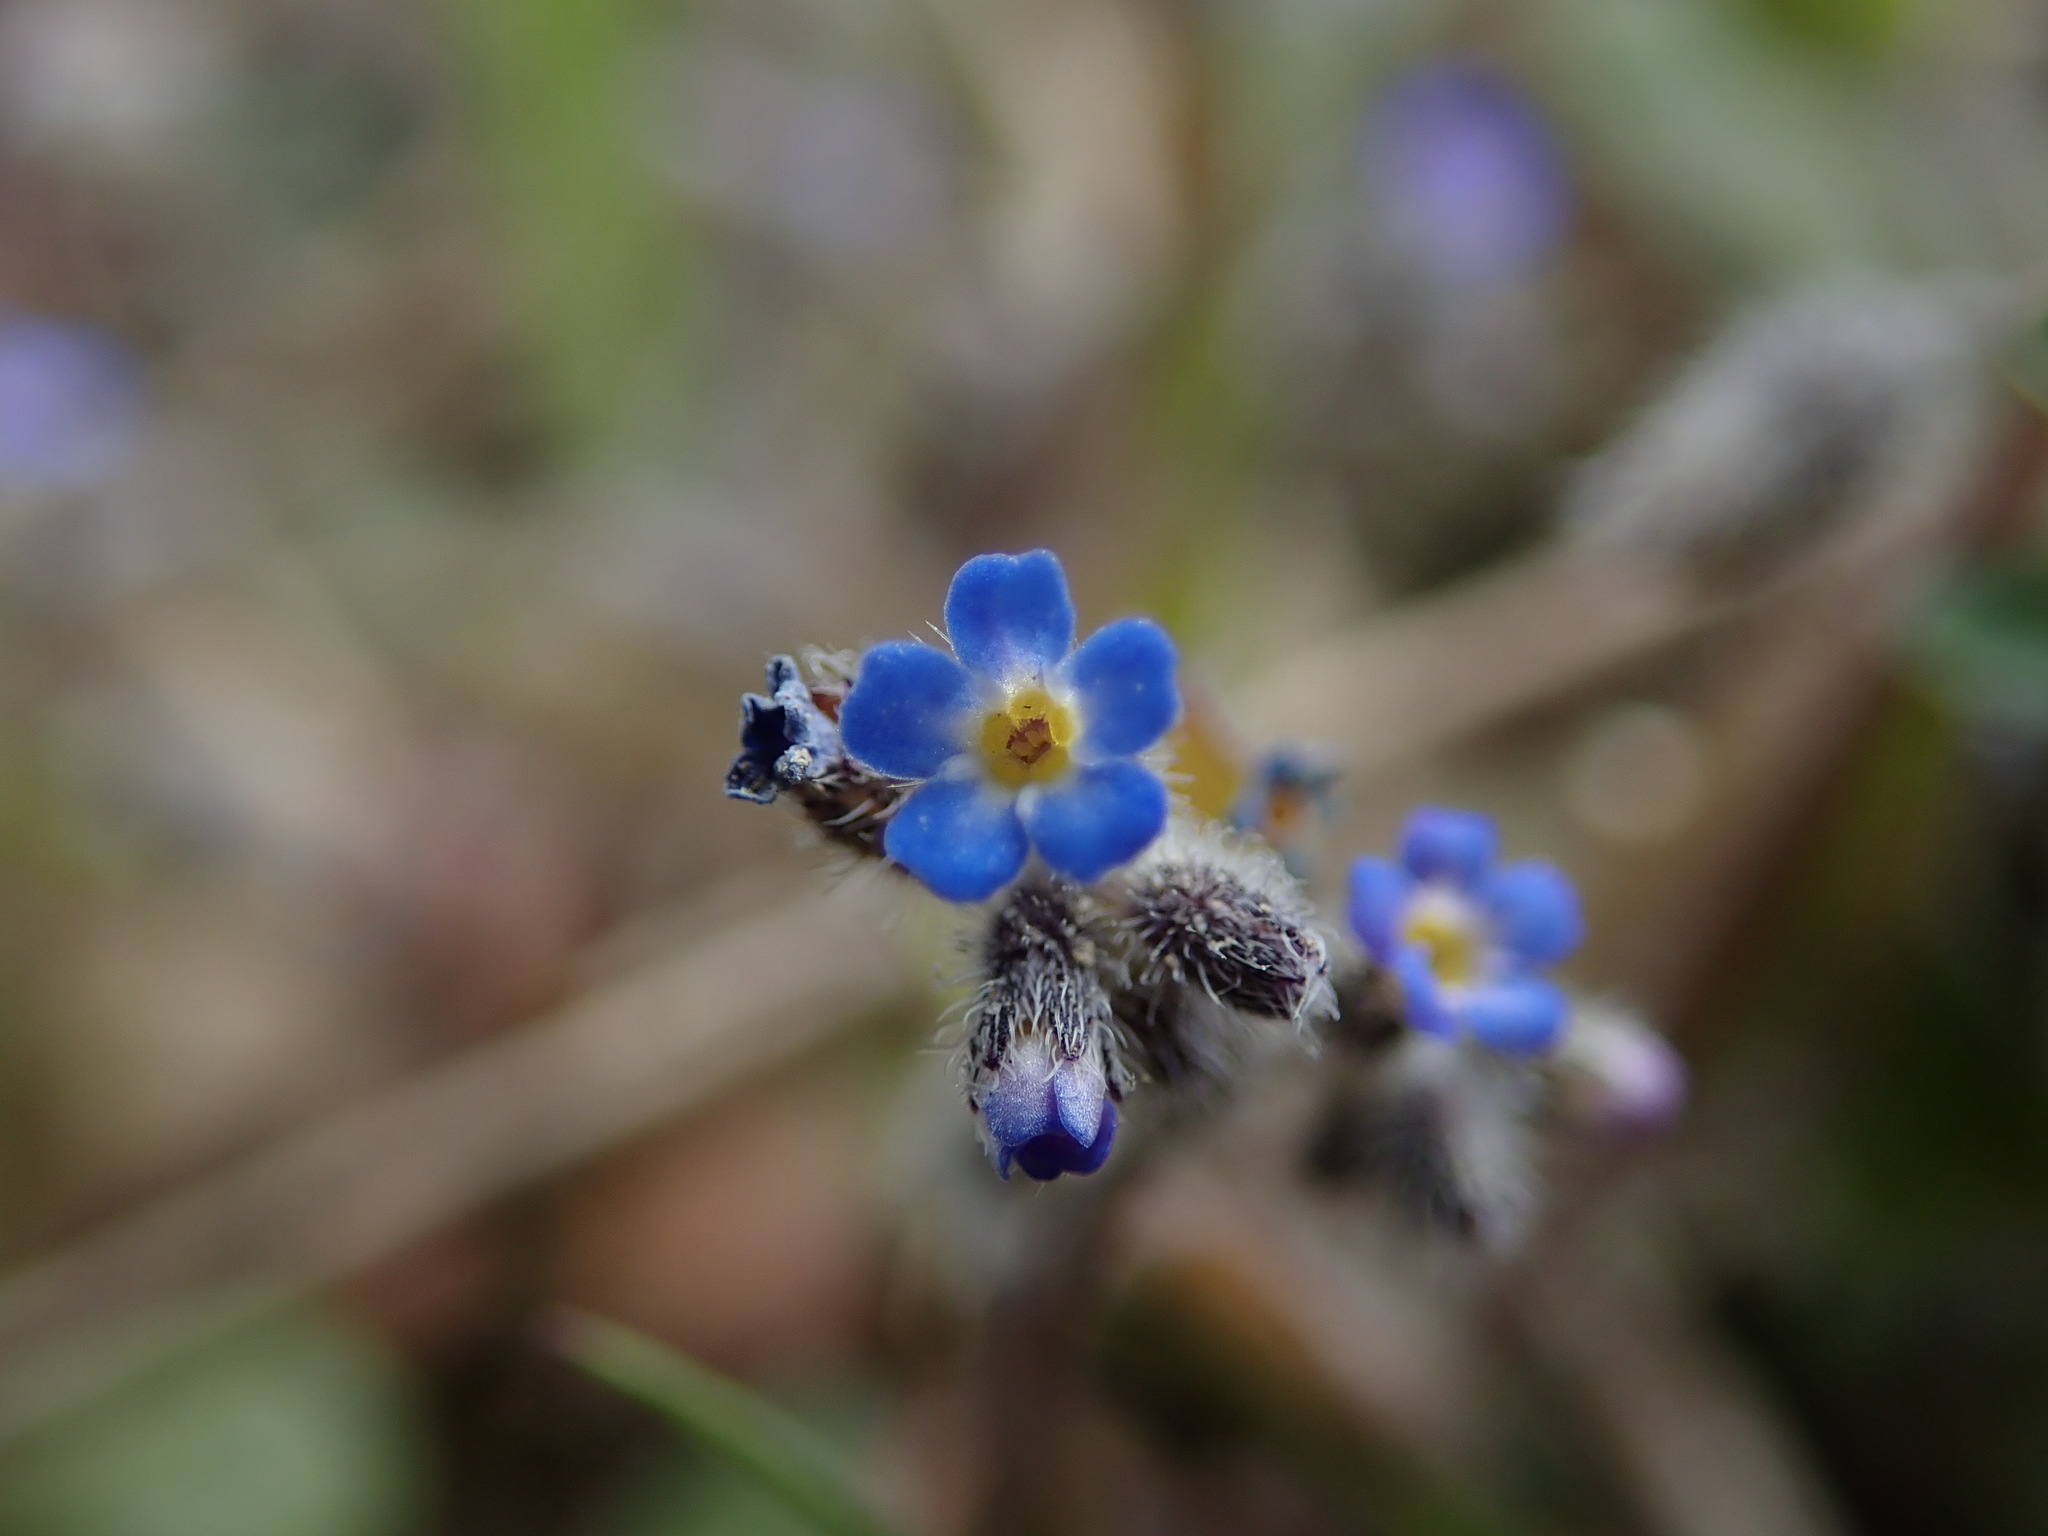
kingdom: Plantae
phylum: Tracheophyta
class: Magnoliopsida
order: Boraginales
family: Boraginaceae
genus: Myosotis
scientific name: Myosotis ramosissima
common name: Early forget-me-not
